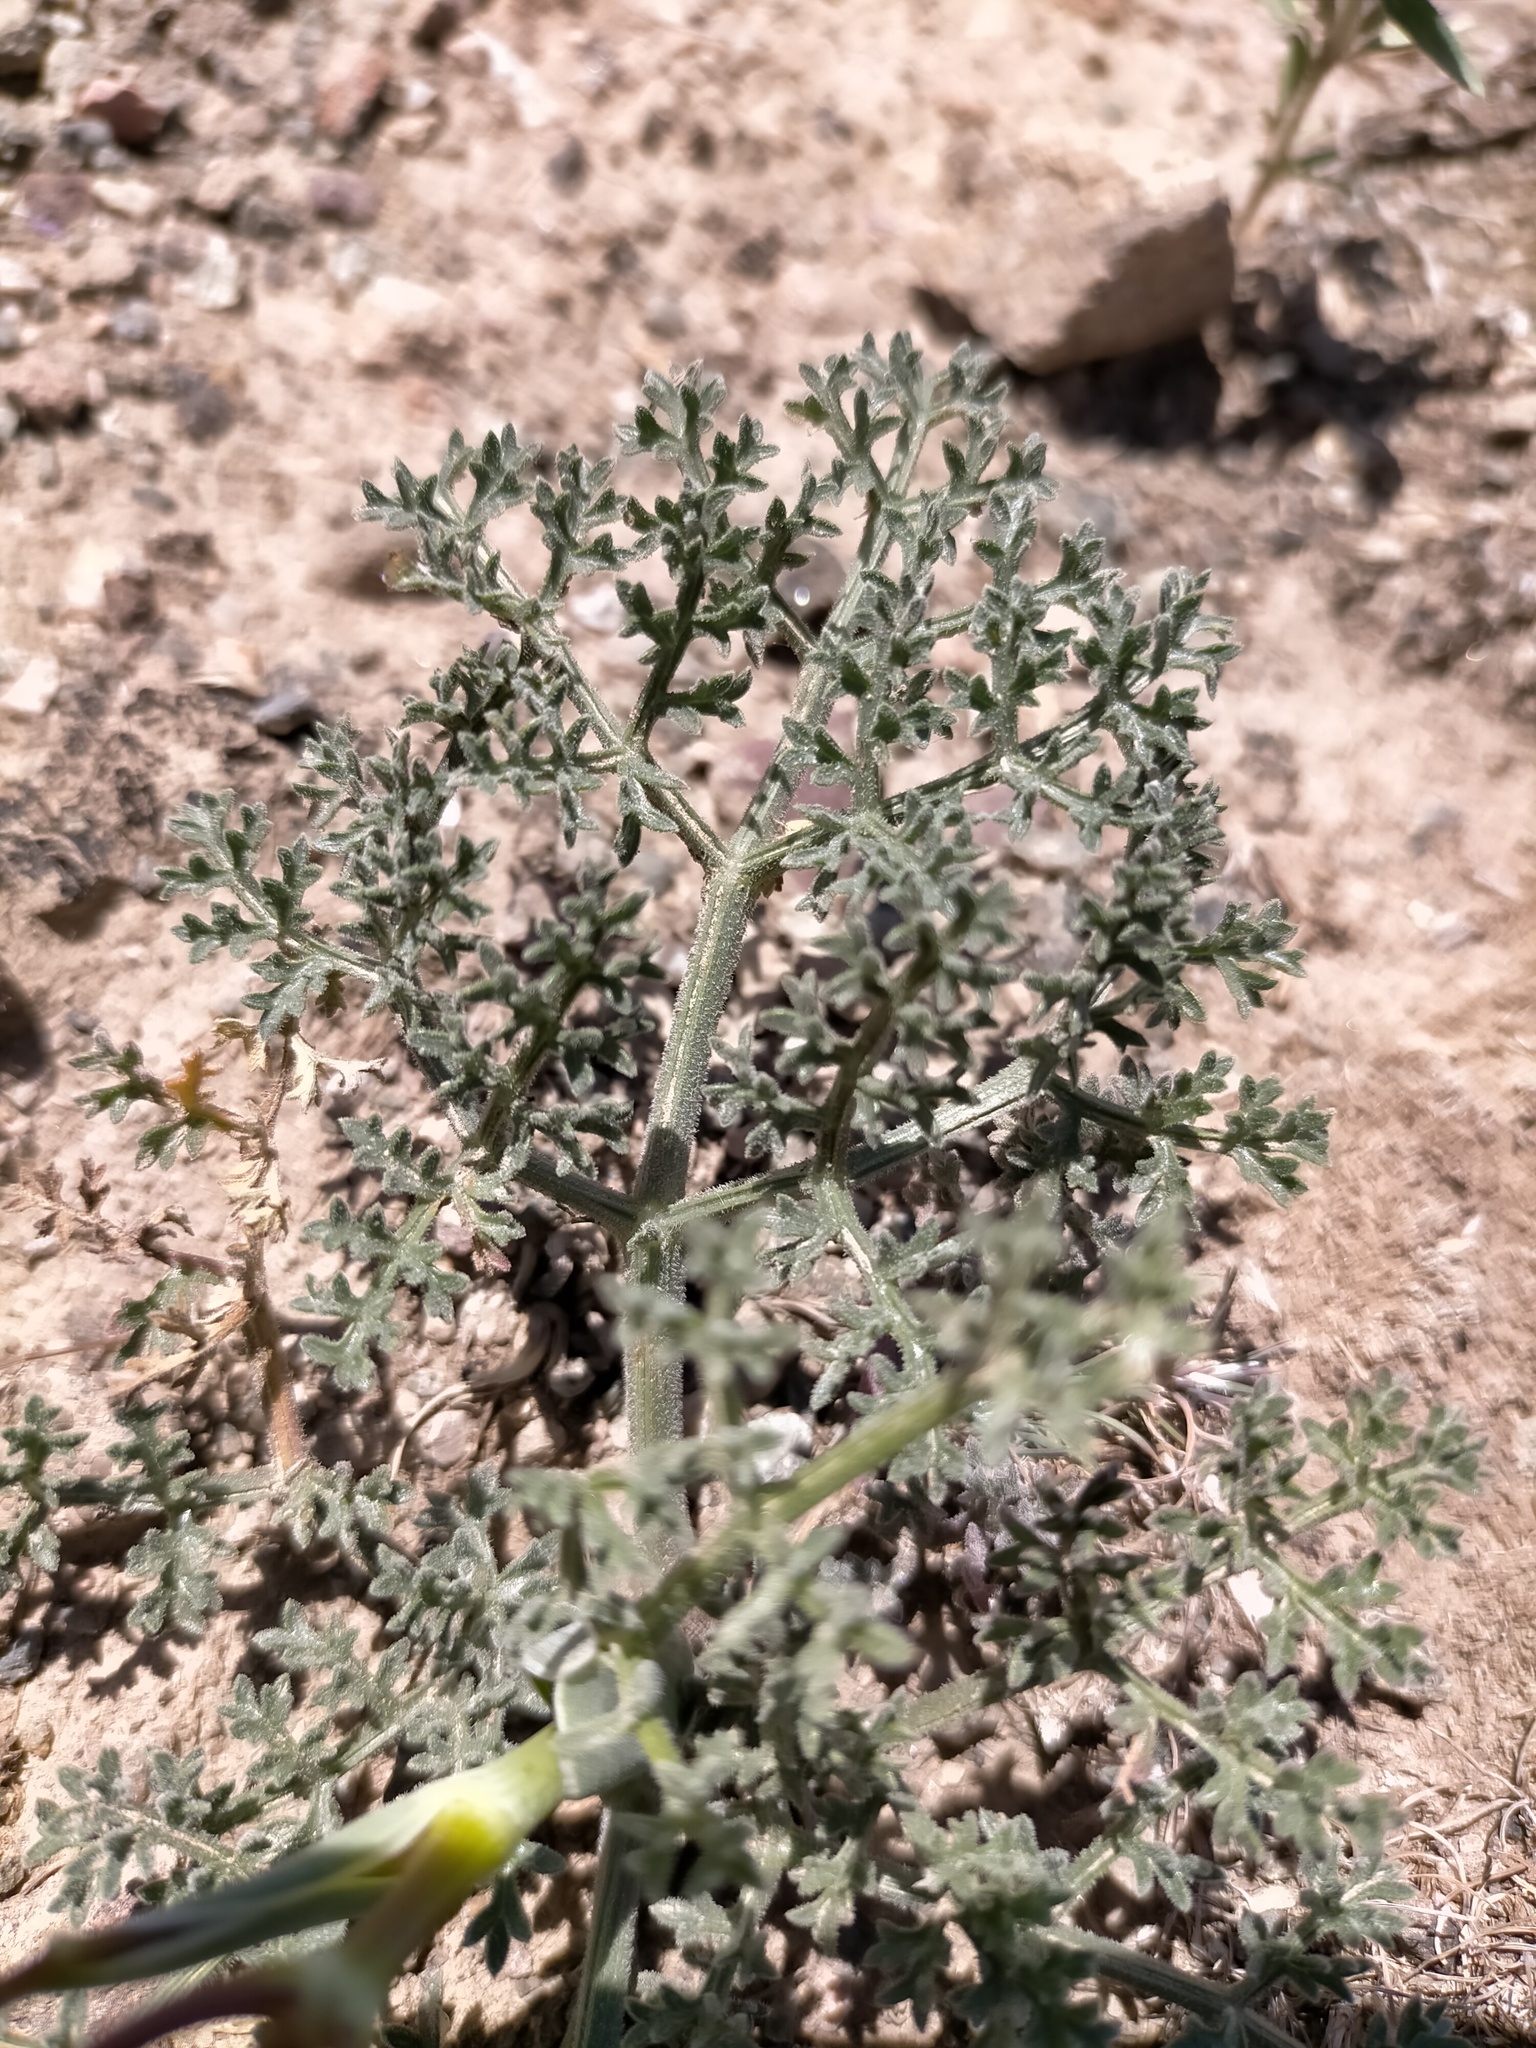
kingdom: Plantae
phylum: Tracheophyta
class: Magnoliopsida
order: Apiales
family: Apiaceae
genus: Ferula
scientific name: Ferula syreitschikowii
